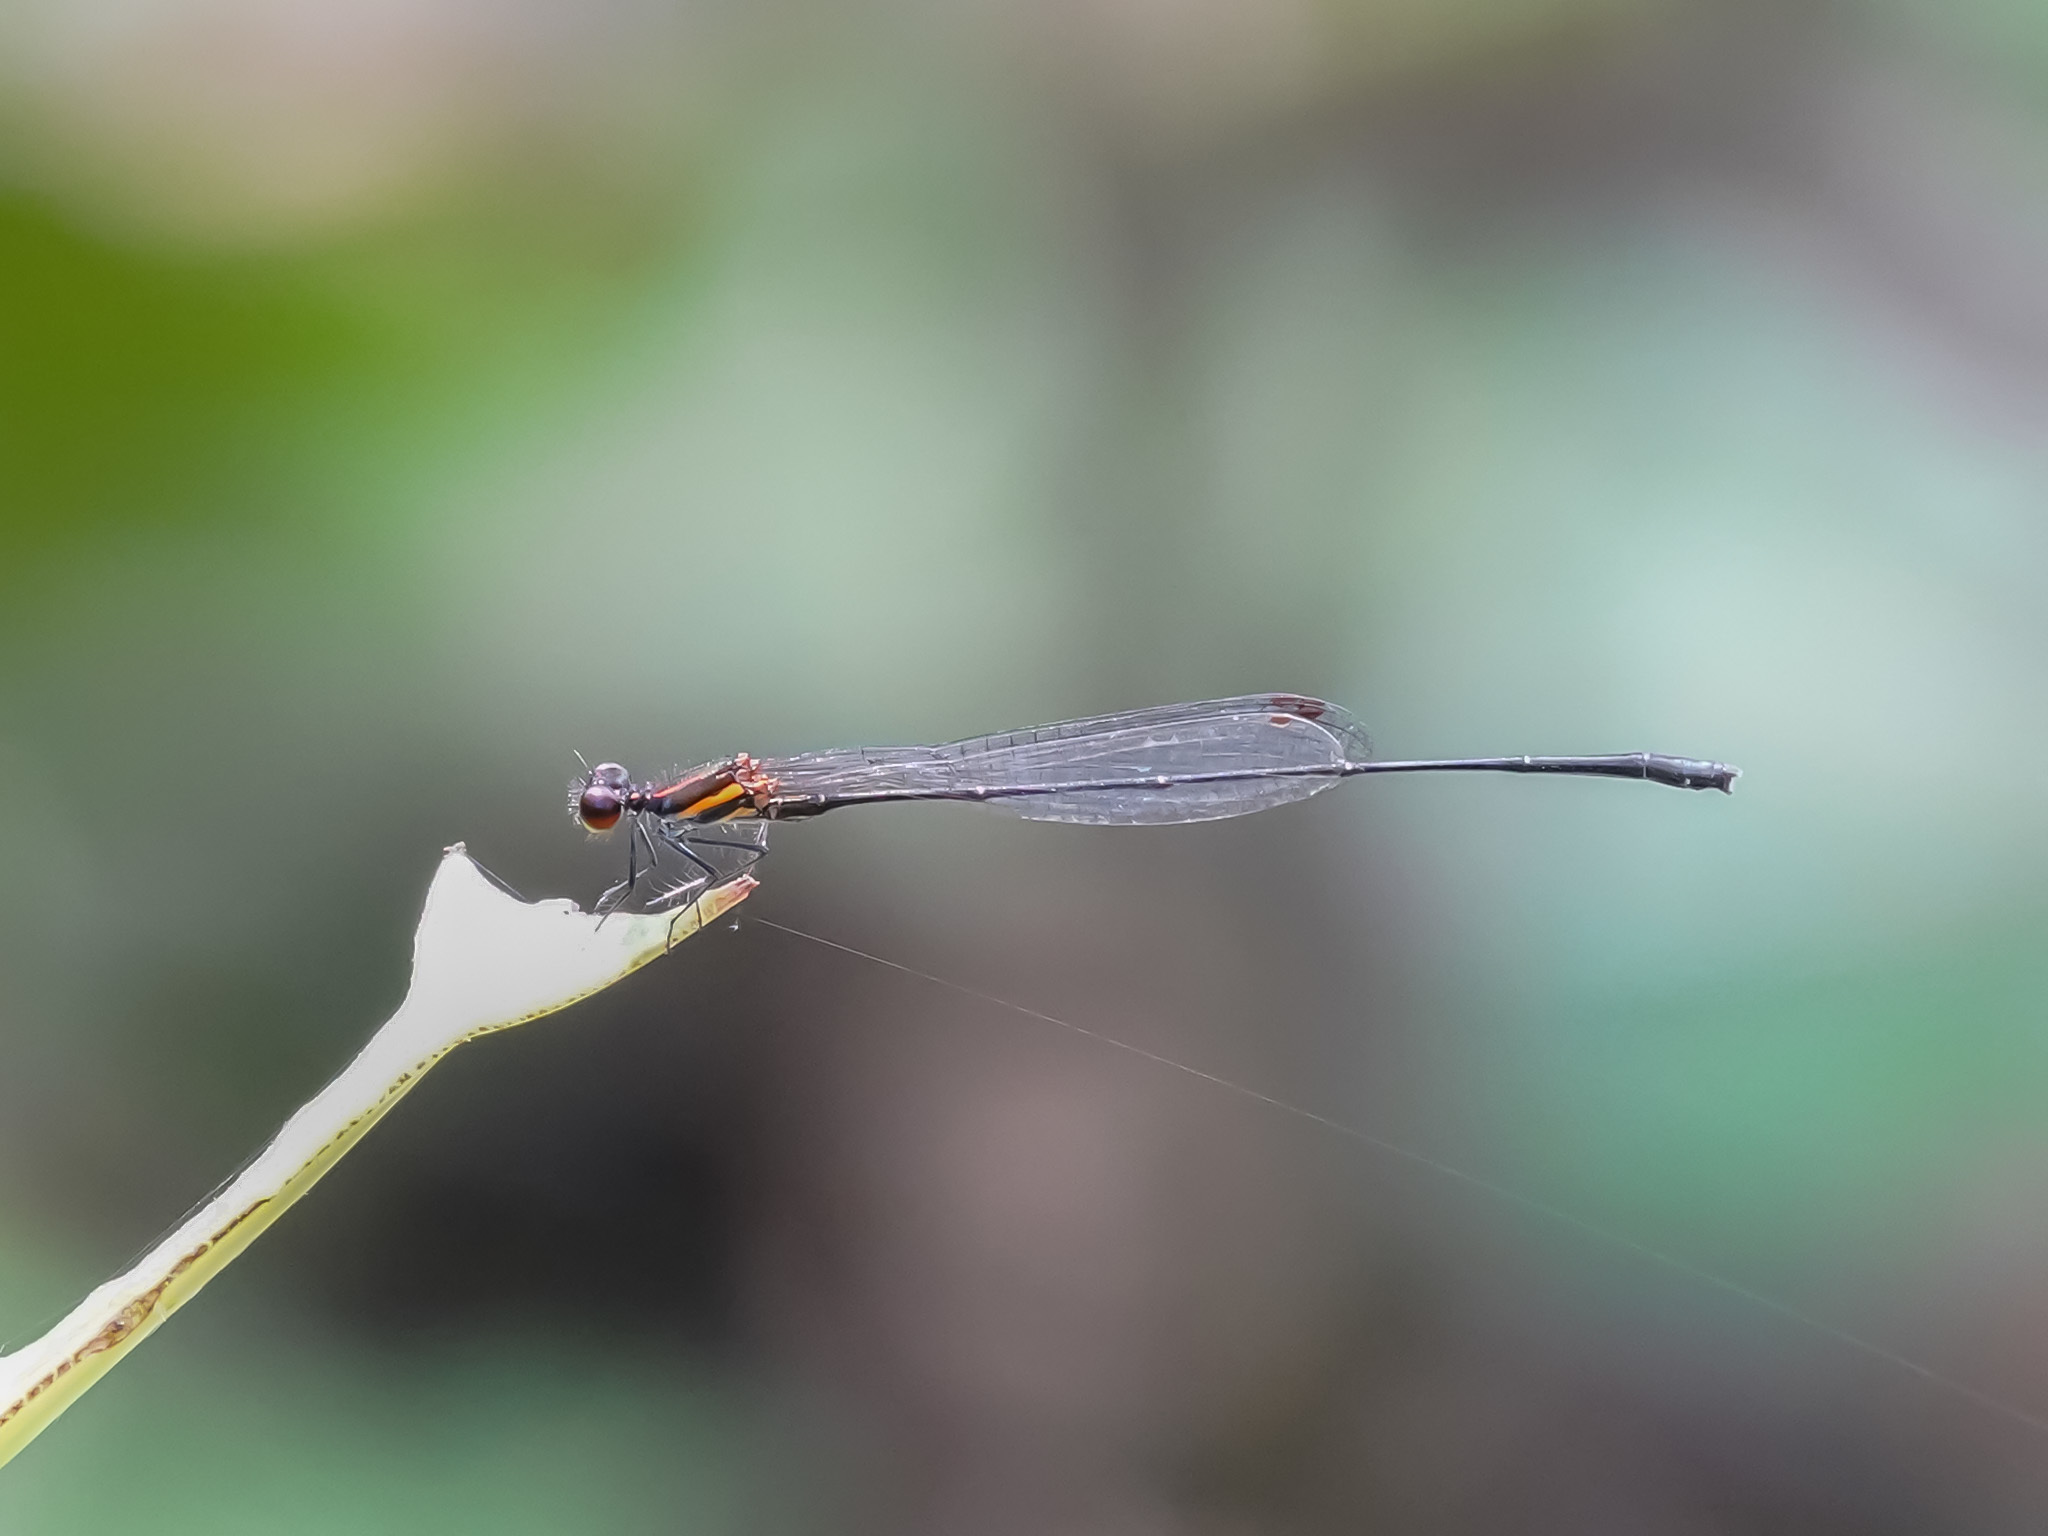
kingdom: Animalia
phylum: Arthropoda
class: Insecta
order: Odonata
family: Platycnemididae
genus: Prodasineura
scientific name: Prodasineura verticalis
